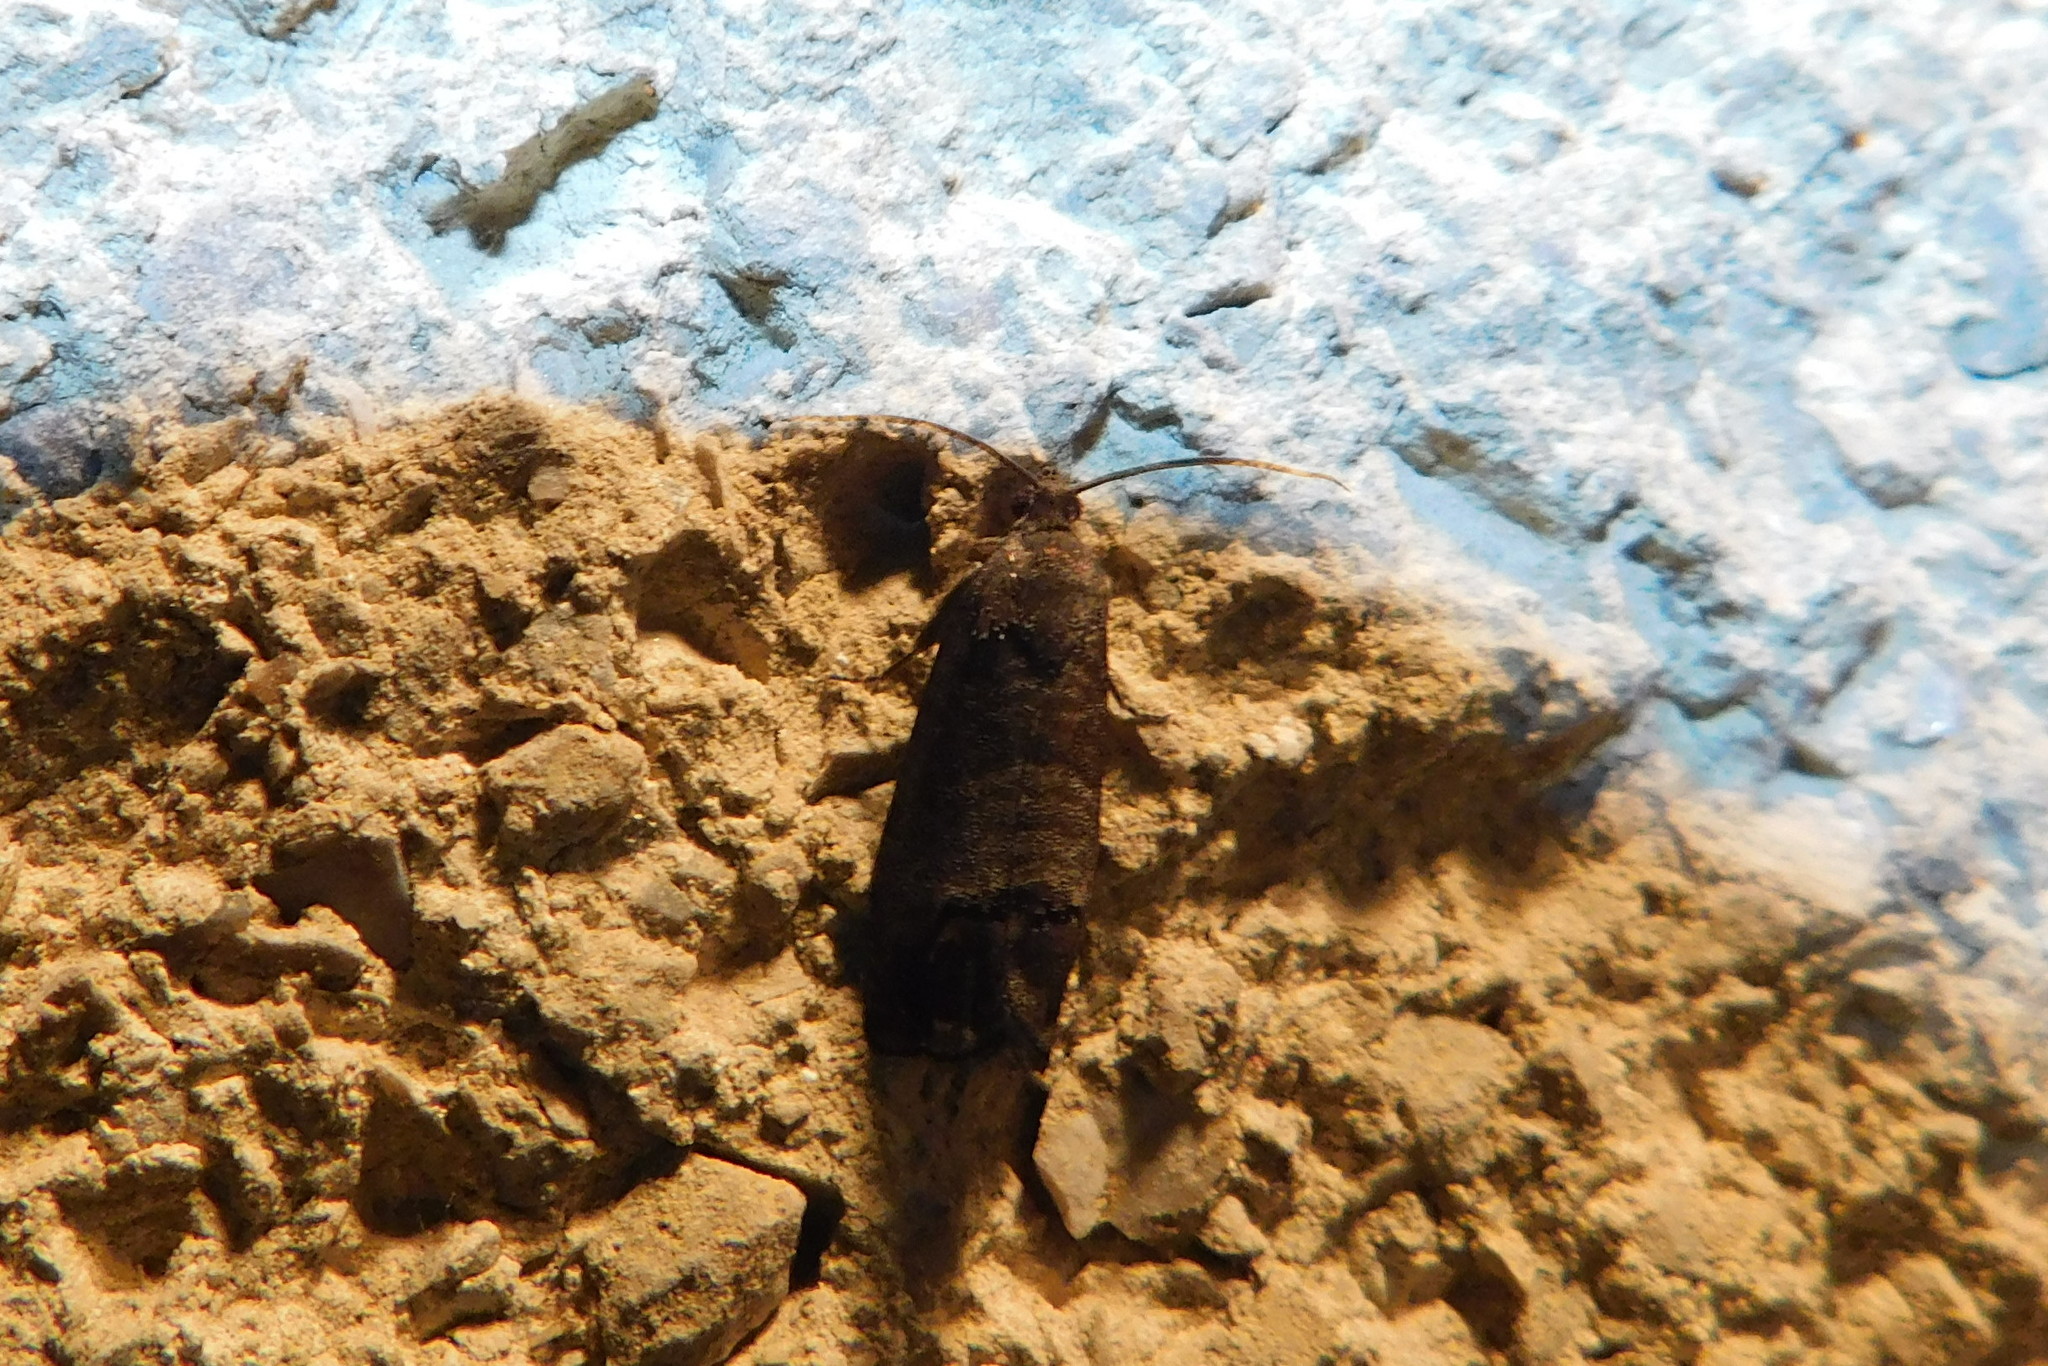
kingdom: Animalia
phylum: Arthropoda
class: Insecta
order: Lepidoptera
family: Tortricidae
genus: Cydia
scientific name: Cydia pomonella
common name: Codling moth
